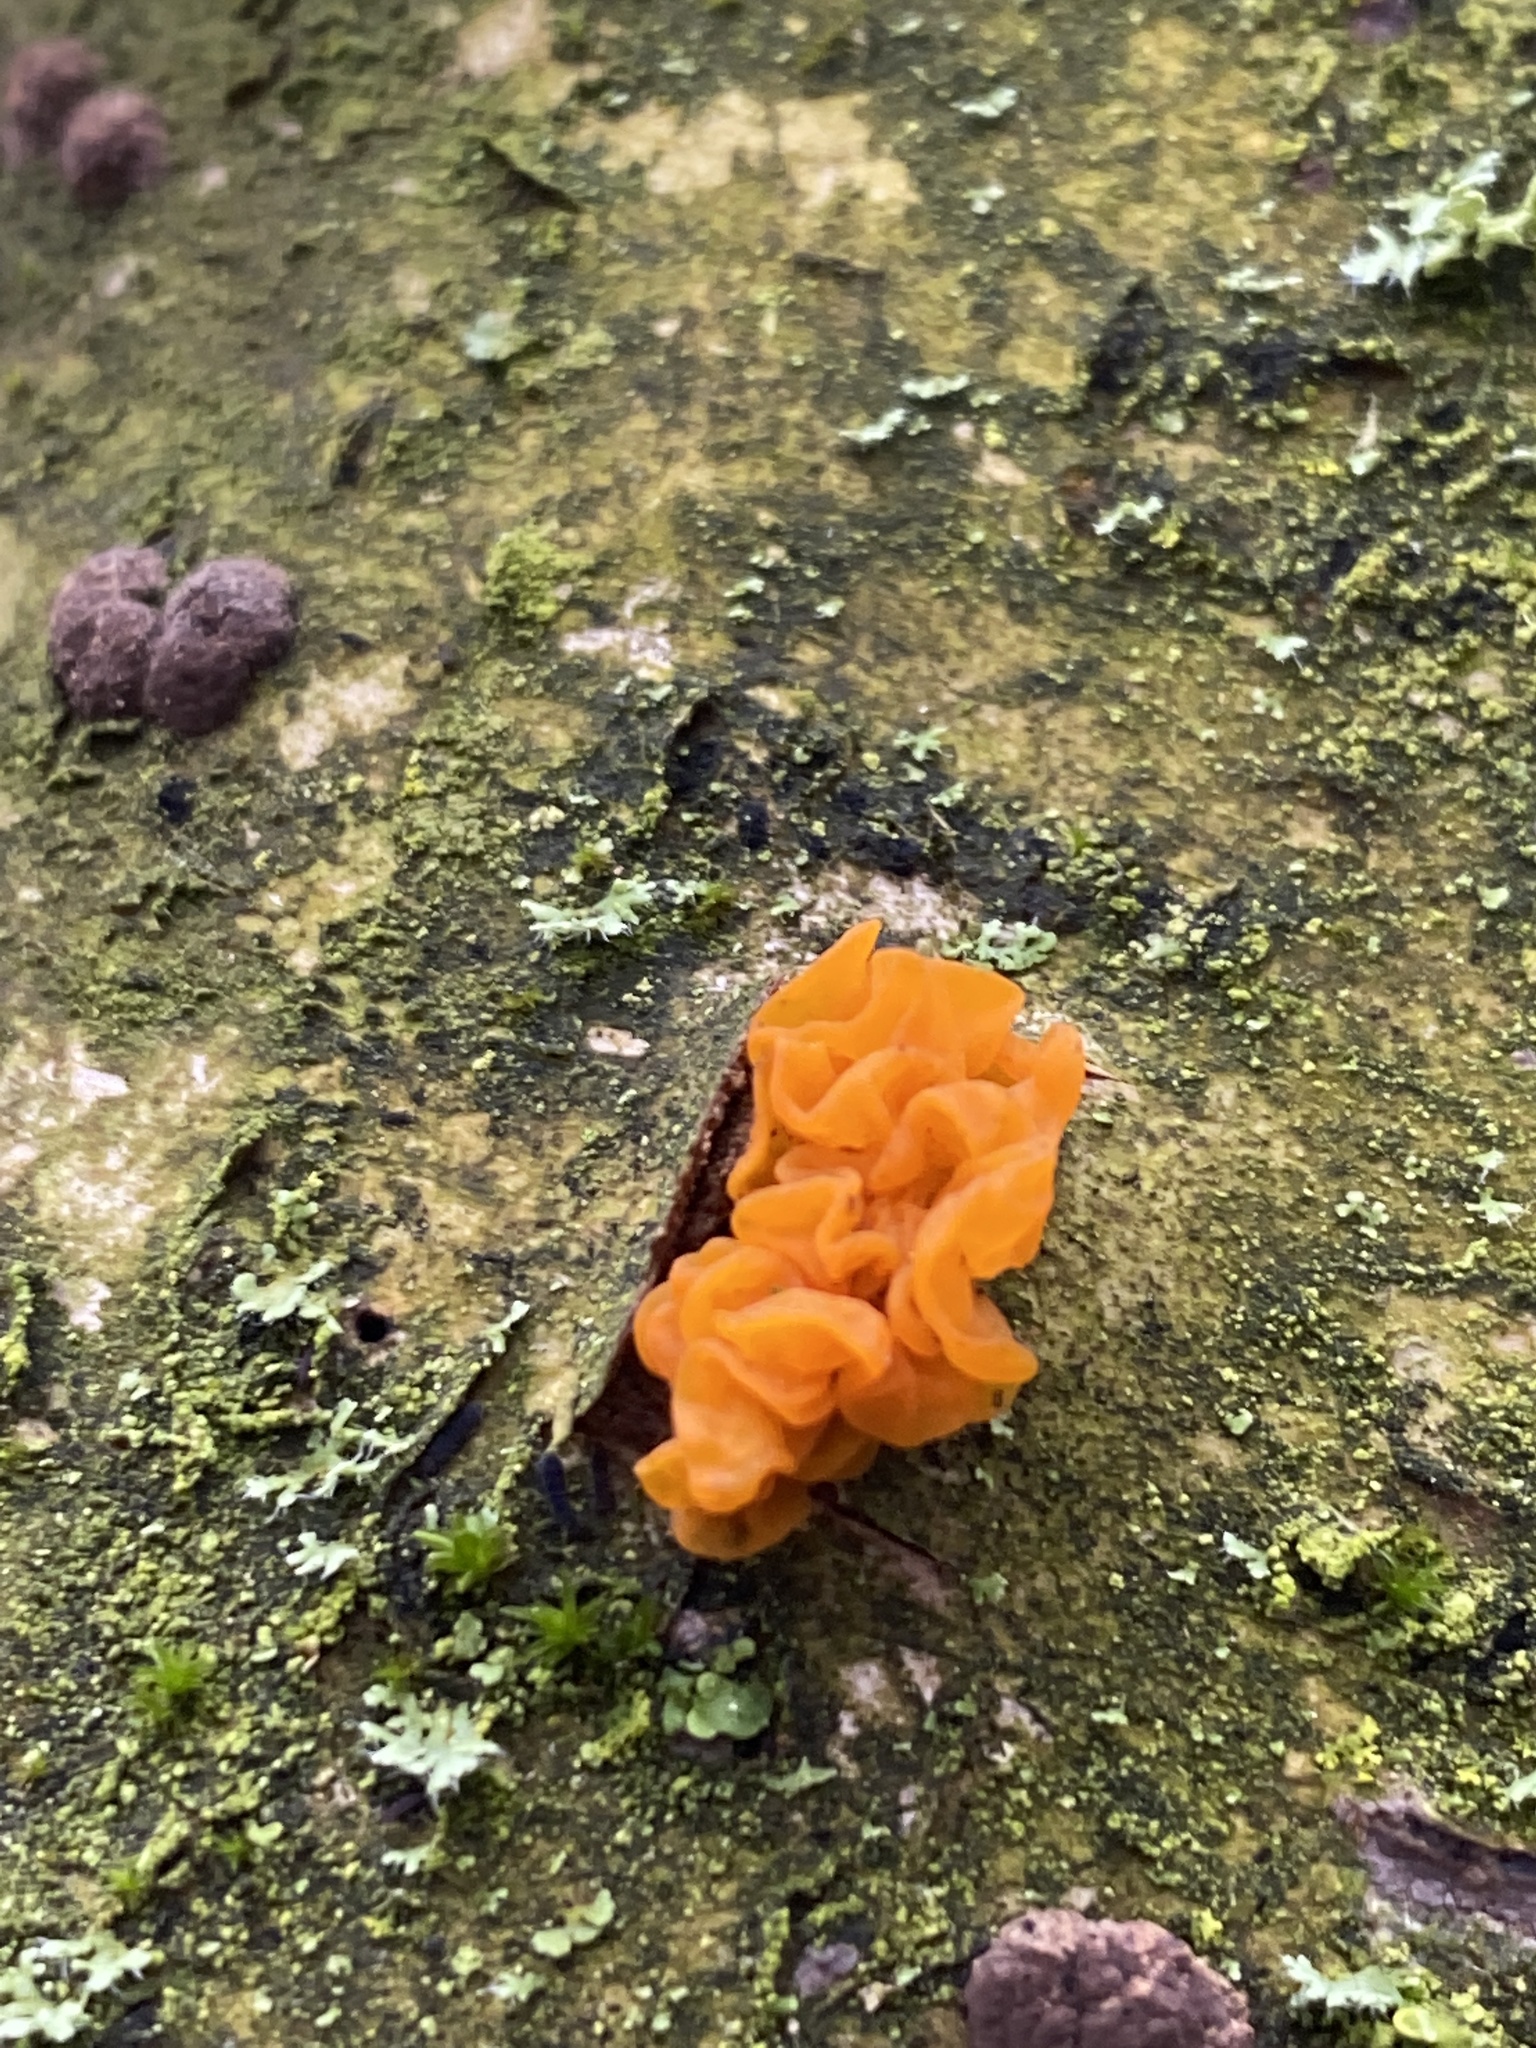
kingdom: Fungi
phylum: Basidiomycota
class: Tremellomycetes
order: Tremellales
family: Tremellaceae
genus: Tremella
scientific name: Tremella mesenterica
